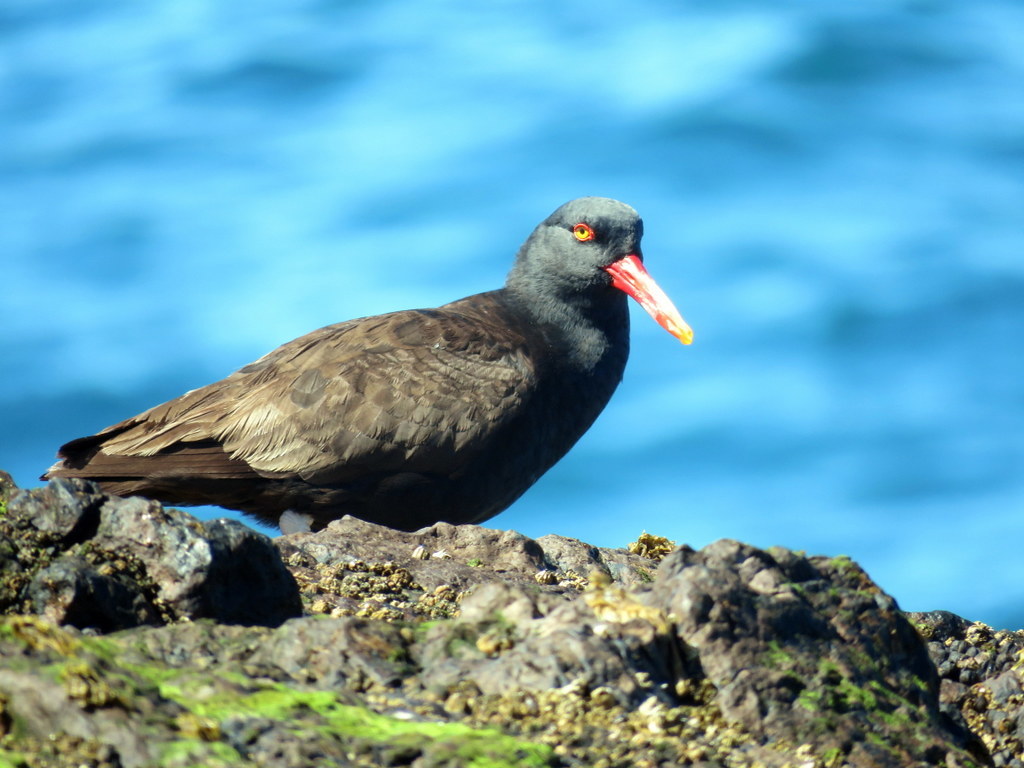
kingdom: Animalia
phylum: Chordata
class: Aves
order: Charadriiformes
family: Haematopodidae
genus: Haematopus
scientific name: Haematopus ater
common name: Blackish oystercatcher
